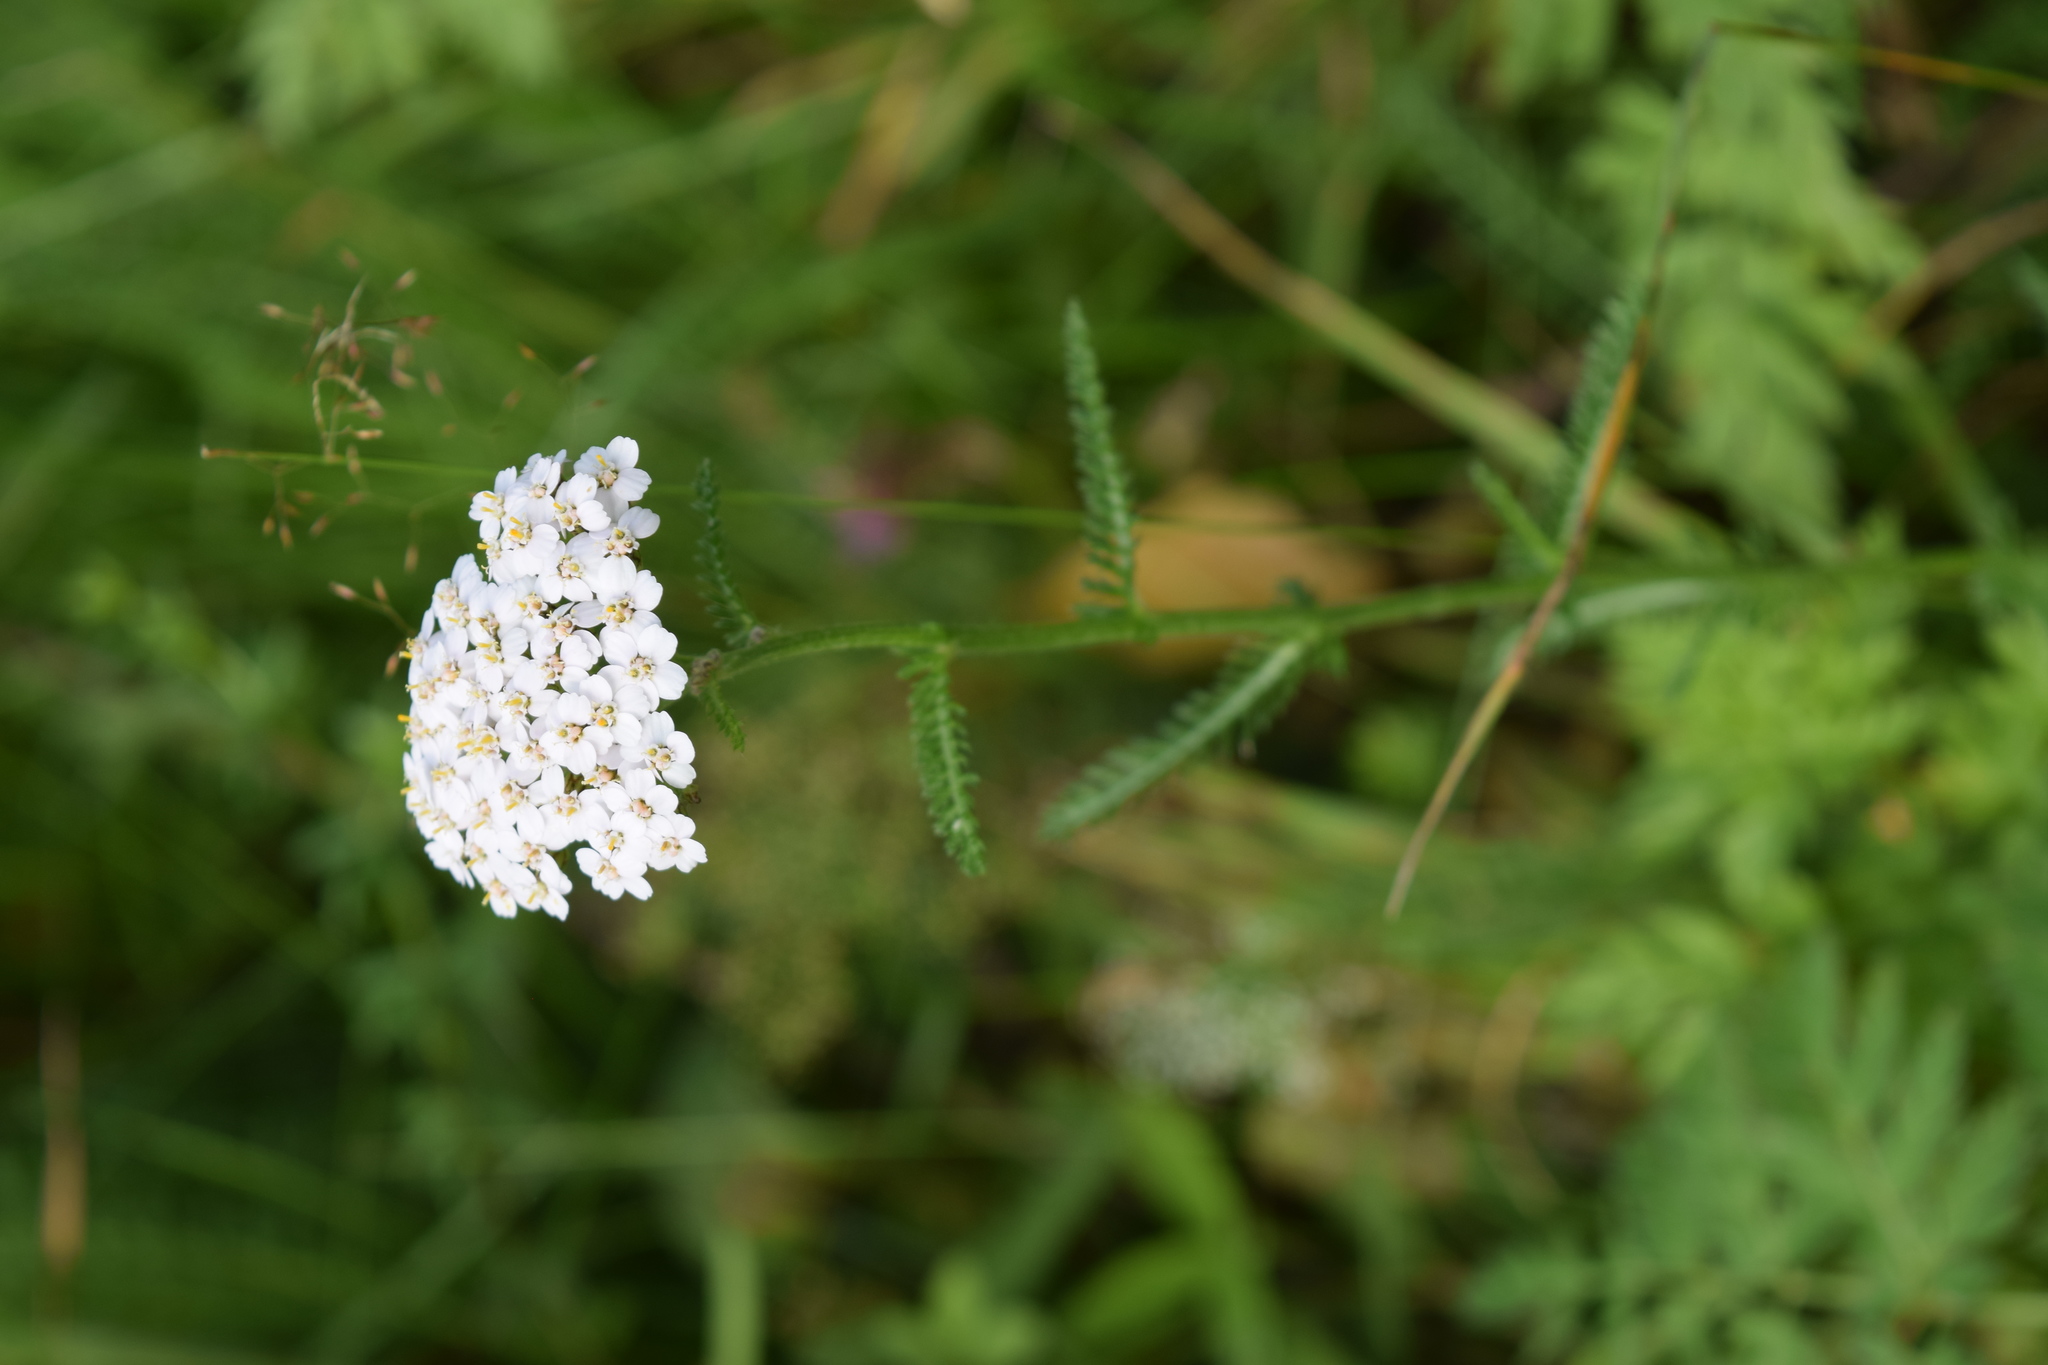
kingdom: Plantae
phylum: Tracheophyta
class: Magnoliopsida
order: Asterales
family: Asteraceae
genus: Achillea
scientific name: Achillea millefolium
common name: Yarrow
